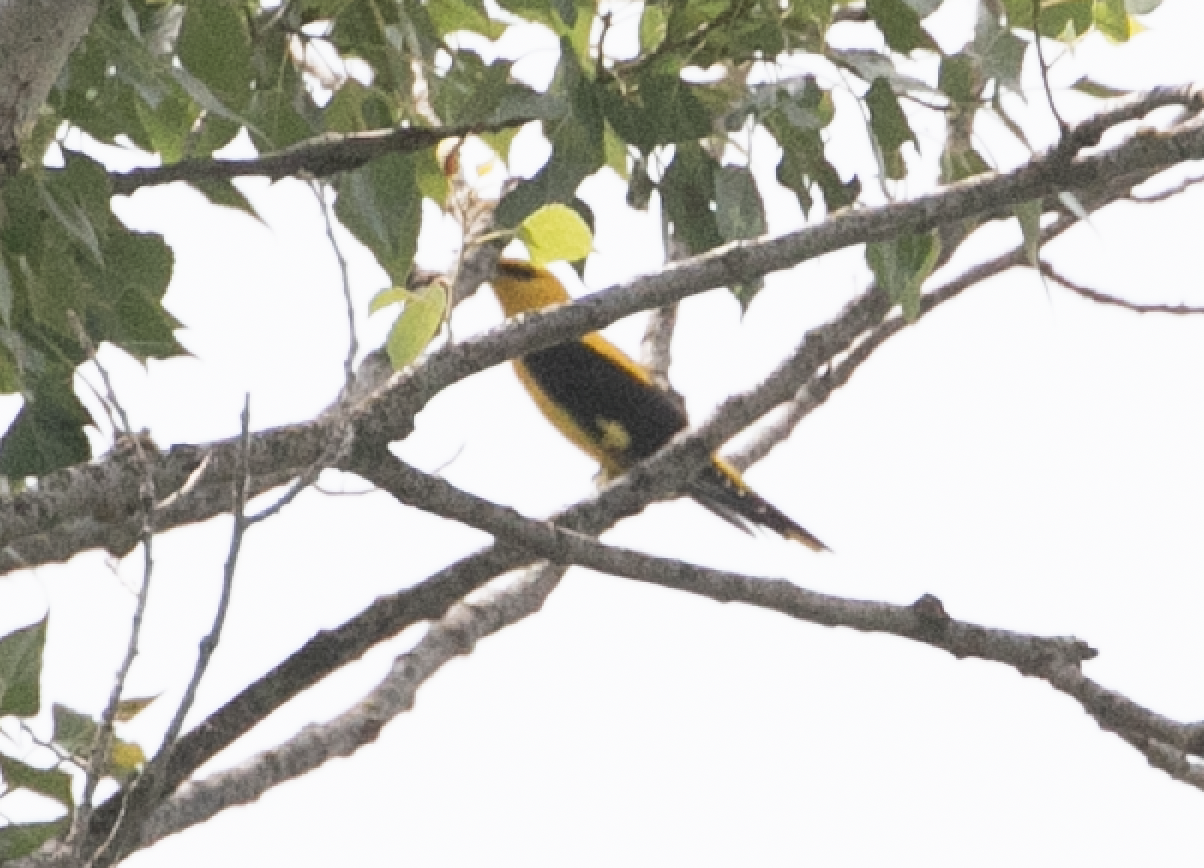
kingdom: Animalia
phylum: Chordata
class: Aves
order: Passeriformes
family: Oriolidae
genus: Oriolus
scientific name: Oriolus oriolus
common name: Eurasian golden oriole
